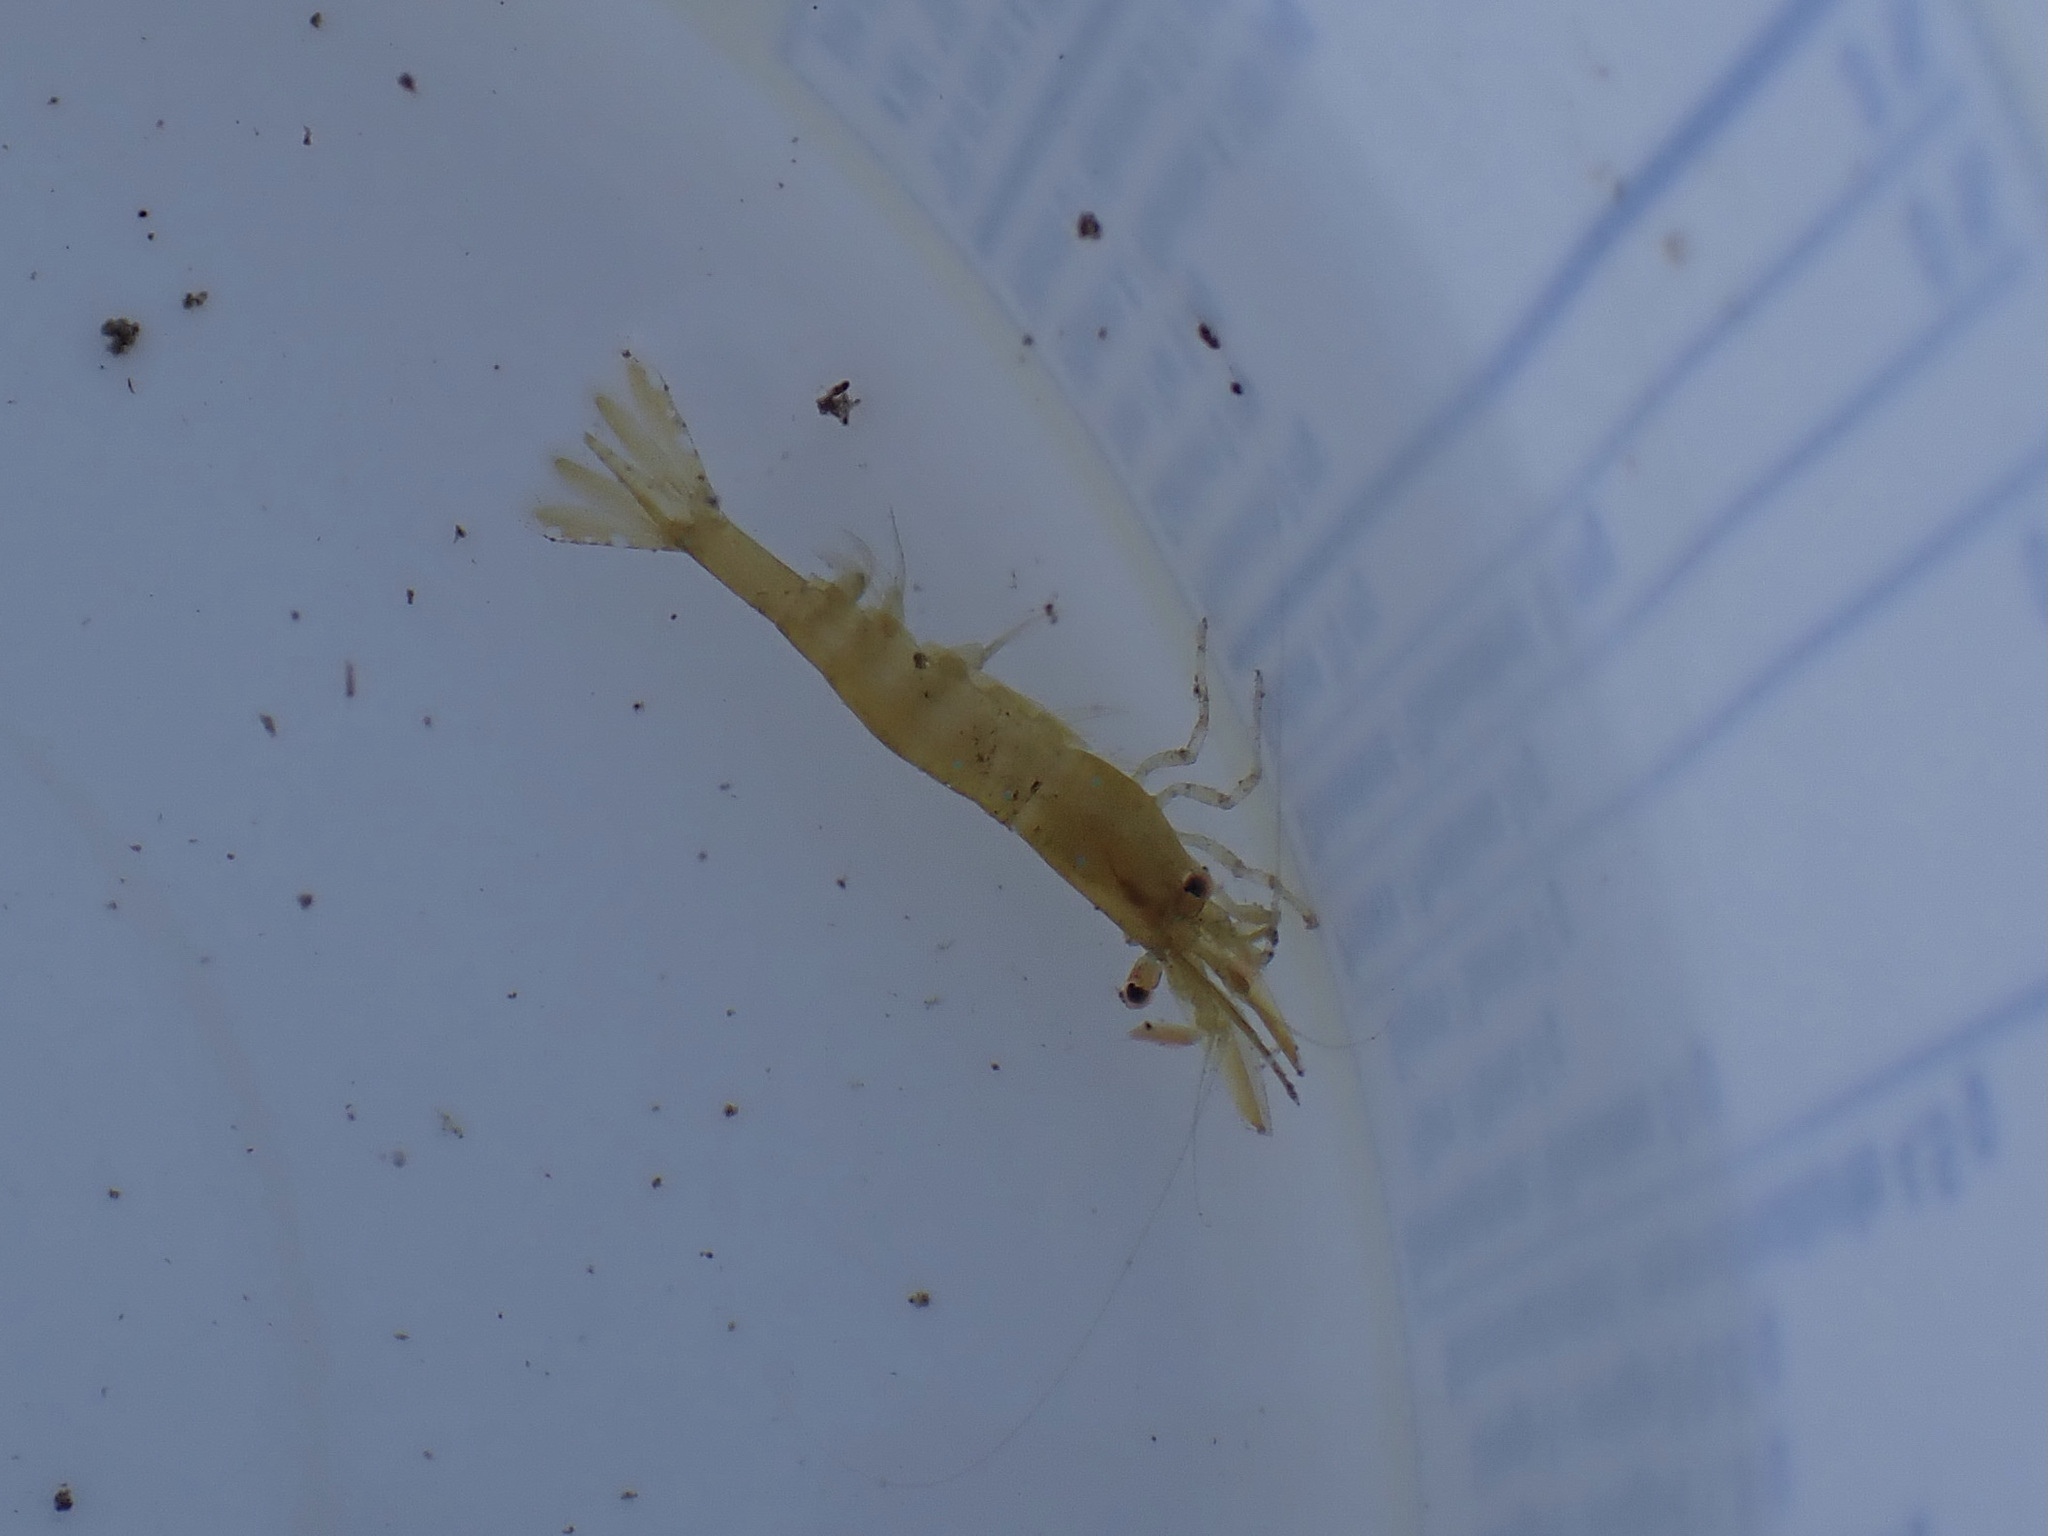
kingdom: Animalia
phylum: Arthropoda
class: Malacostraca
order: Decapoda
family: Thoridae
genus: Heptacarpus
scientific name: Heptacarpus stylus
